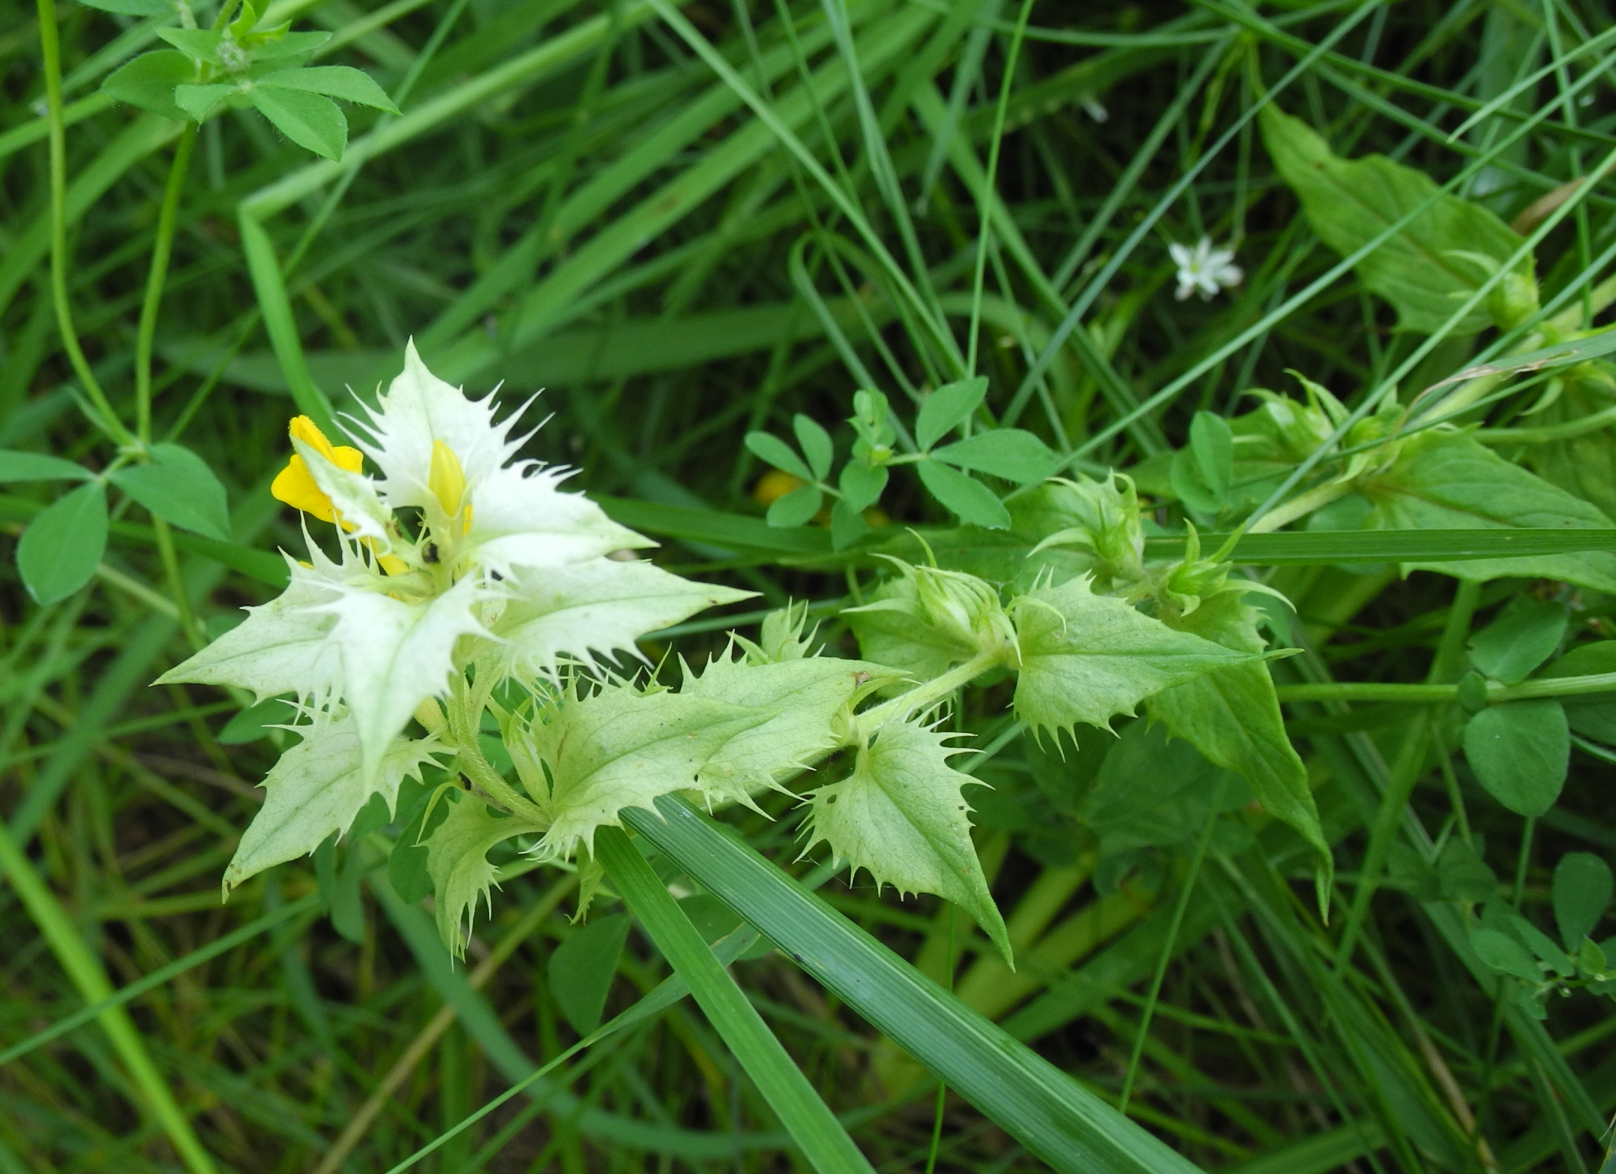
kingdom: Plantae
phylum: Tracheophyta
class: Magnoliopsida
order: Lamiales
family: Orobanchaceae
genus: Melampyrum
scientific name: Melampyrum nemorosum
